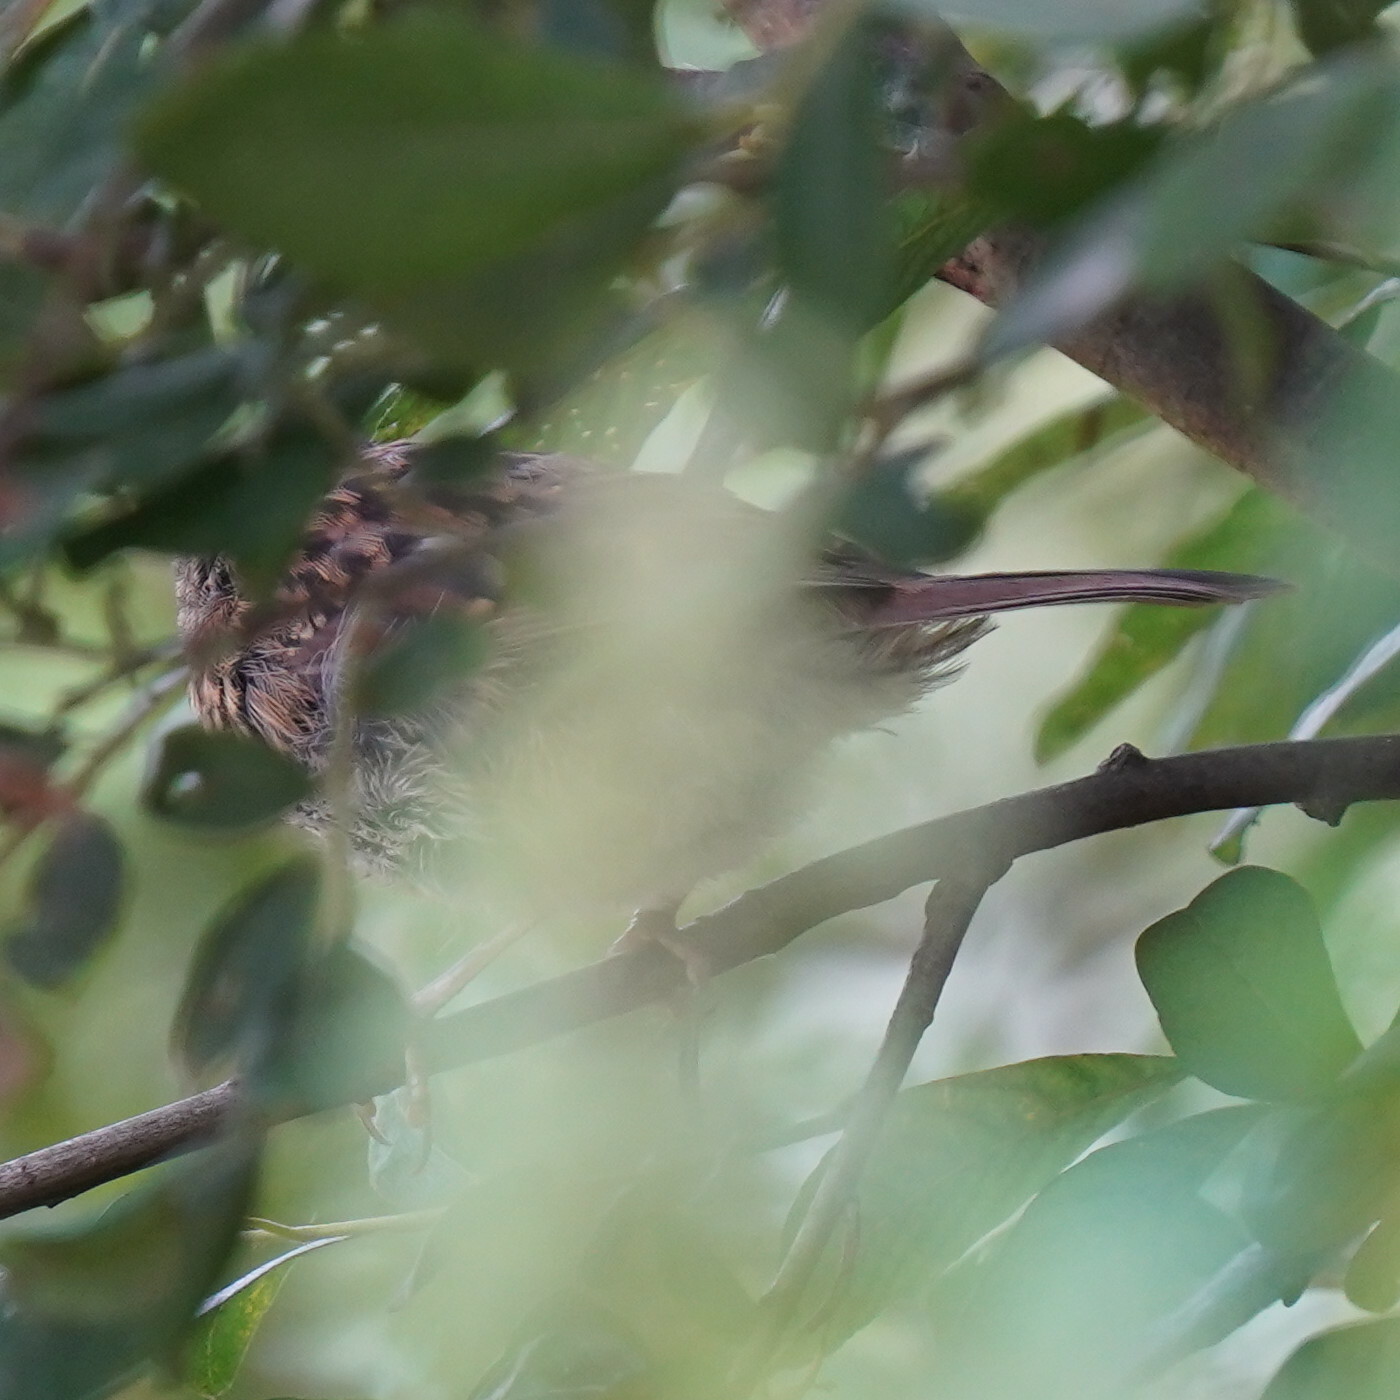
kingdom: Animalia
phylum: Chordata
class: Aves
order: Passeriformes
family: Prunellidae
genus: Prunella
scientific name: Prunella modularis
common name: Dunnock
